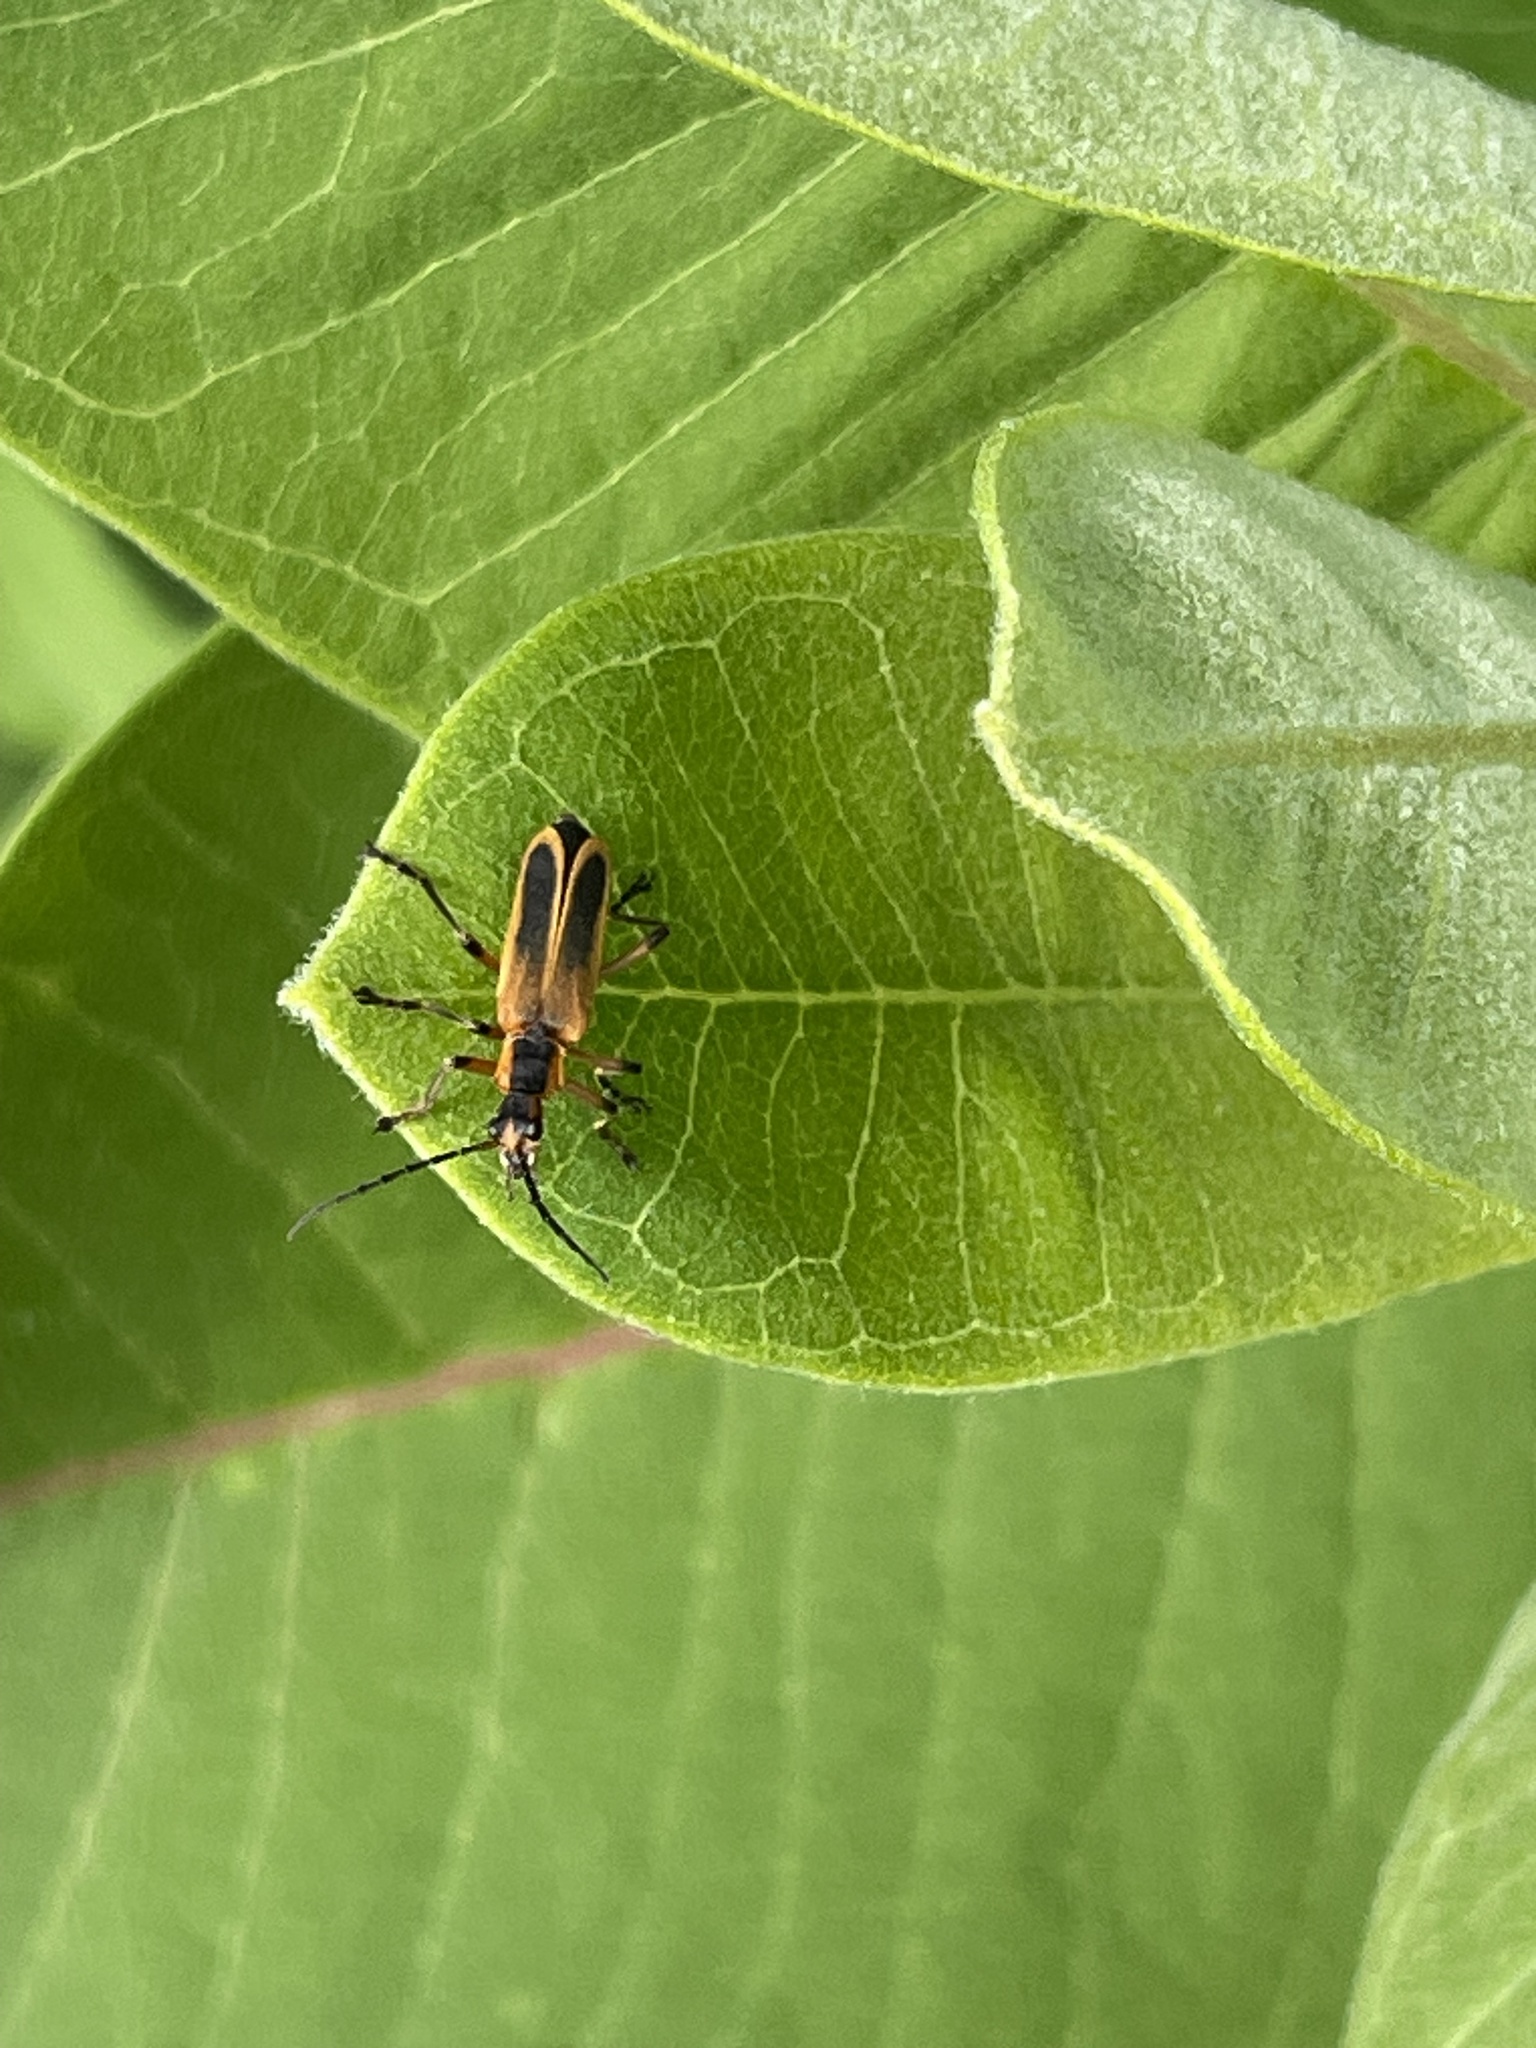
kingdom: Animalia
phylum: Arthropoda
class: Insecta
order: Coleoptera
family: Cantharidae
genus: Chauliognathus
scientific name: Chauliognathus marginatus
